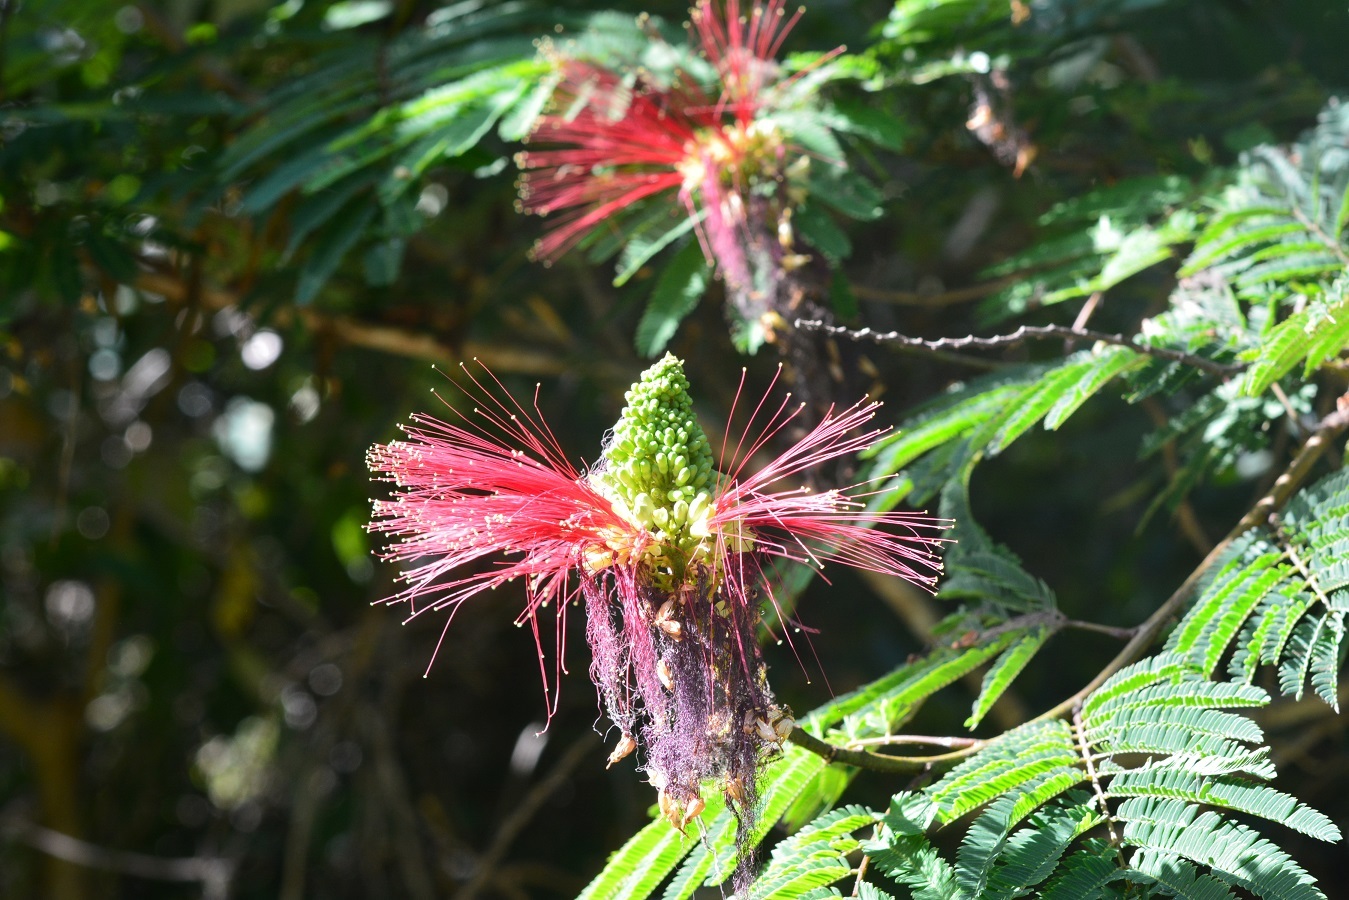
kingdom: Plantae
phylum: Tracheophyta
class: Magnoliopsida
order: Fabales
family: Fabaceae
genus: Calliandra
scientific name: Calliandra houstoniana
